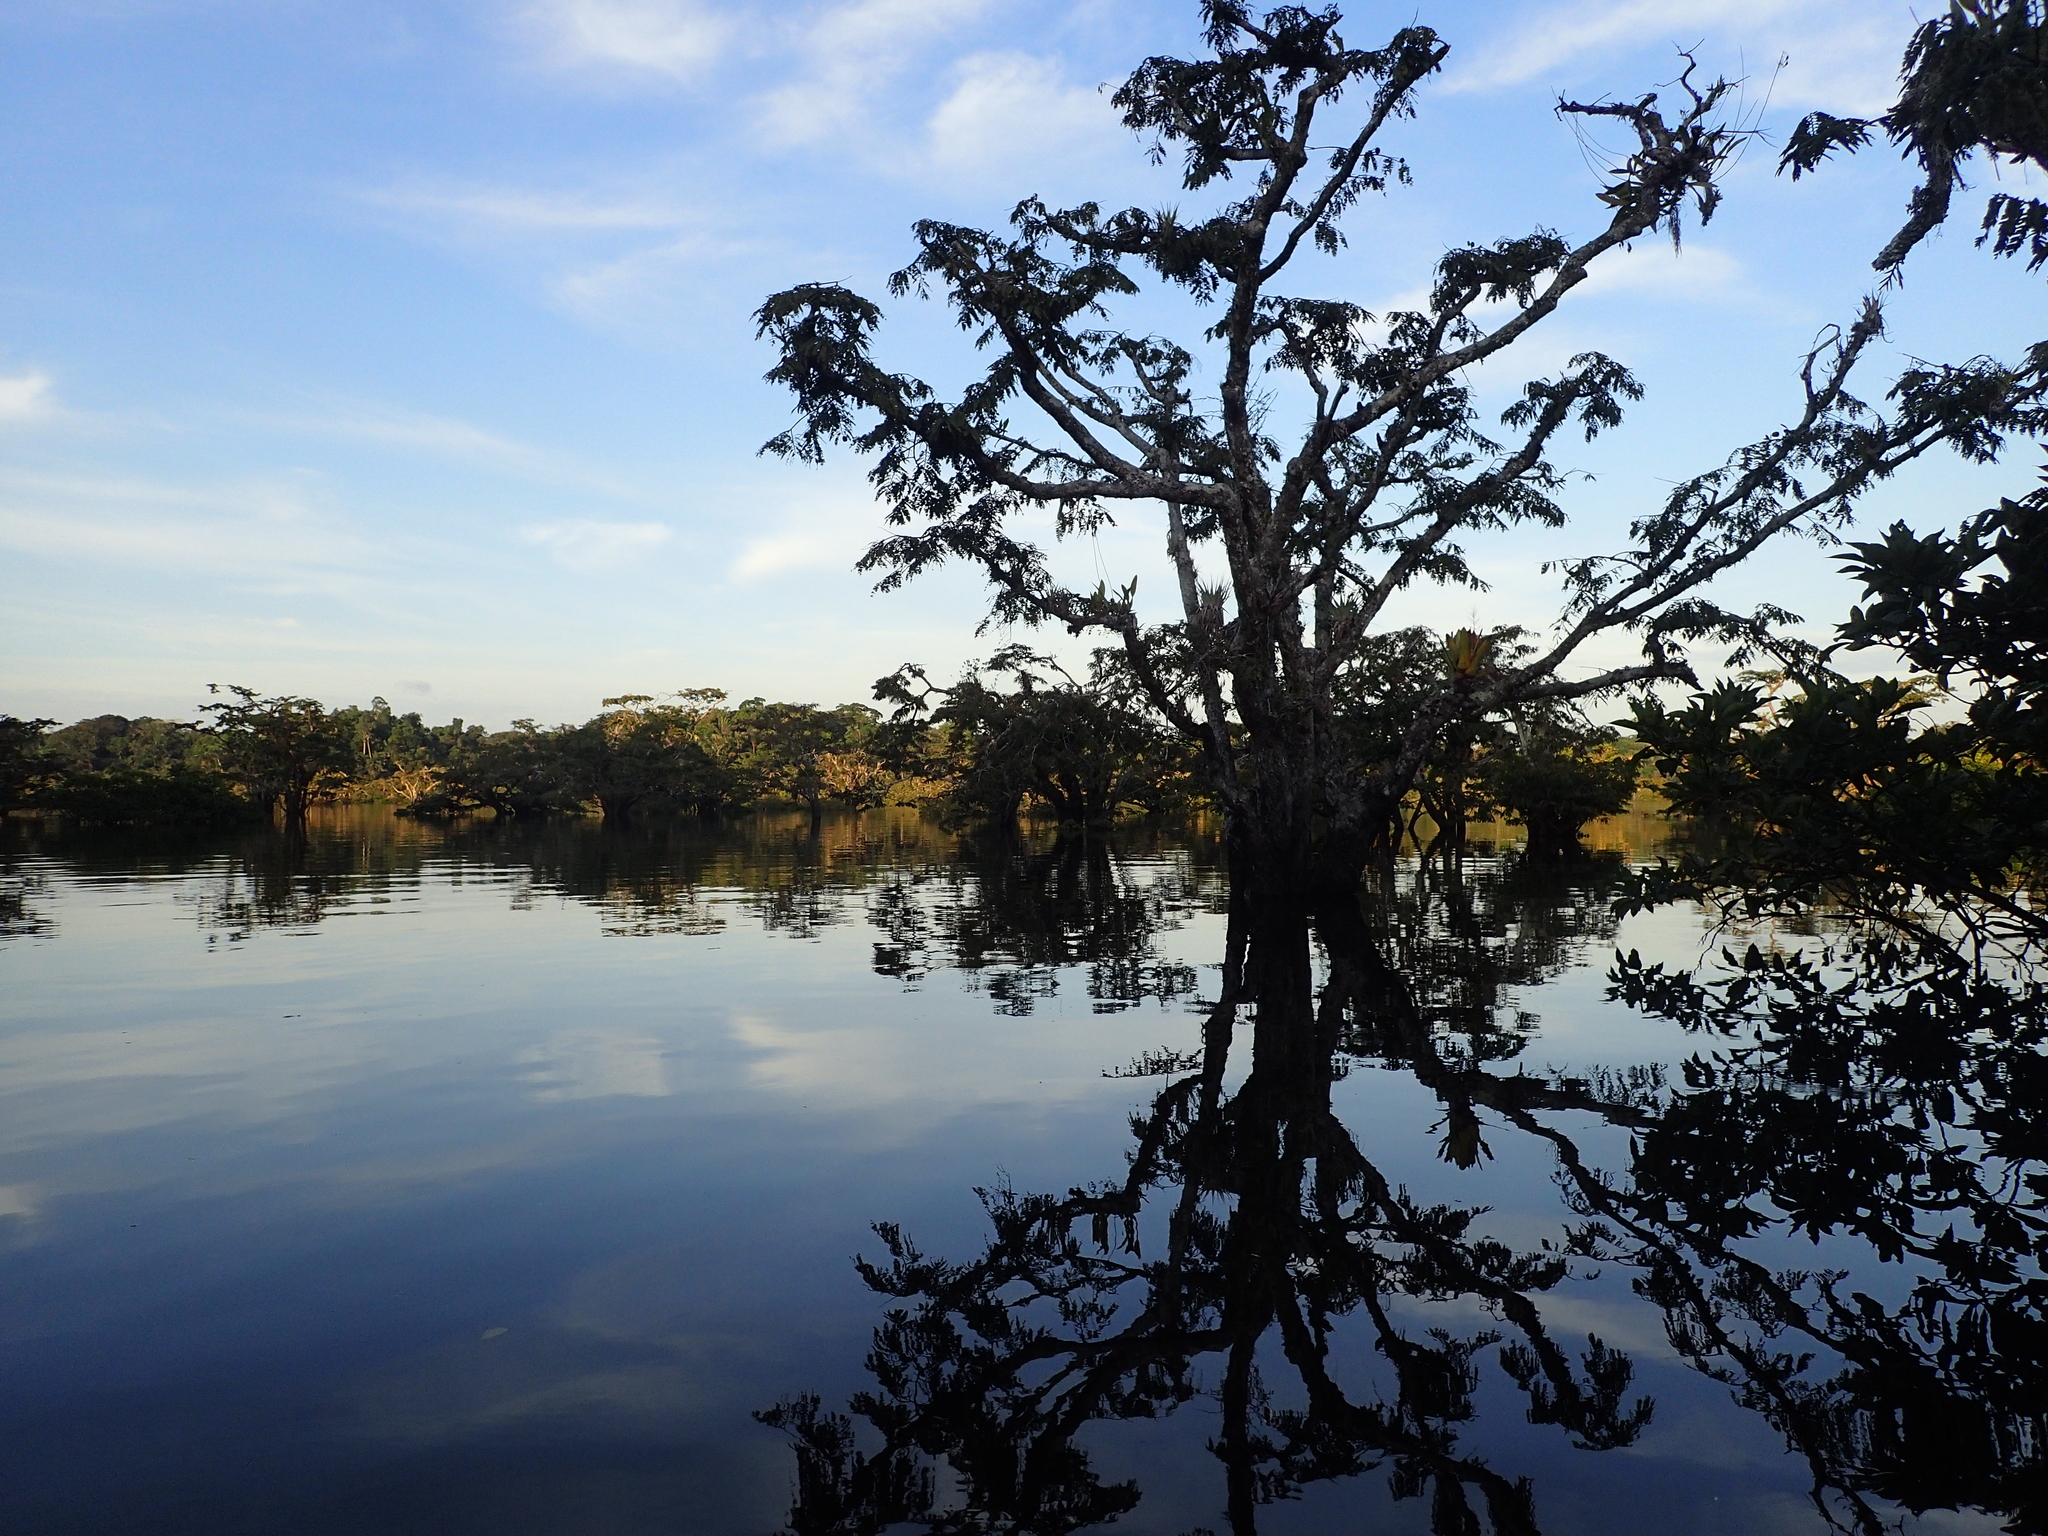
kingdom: Plantae
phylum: Tracheophyta
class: Magnoliopsida
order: Fabales
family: Fabaceae
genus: Macrolobium
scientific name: Macrolobium acaciifolium
